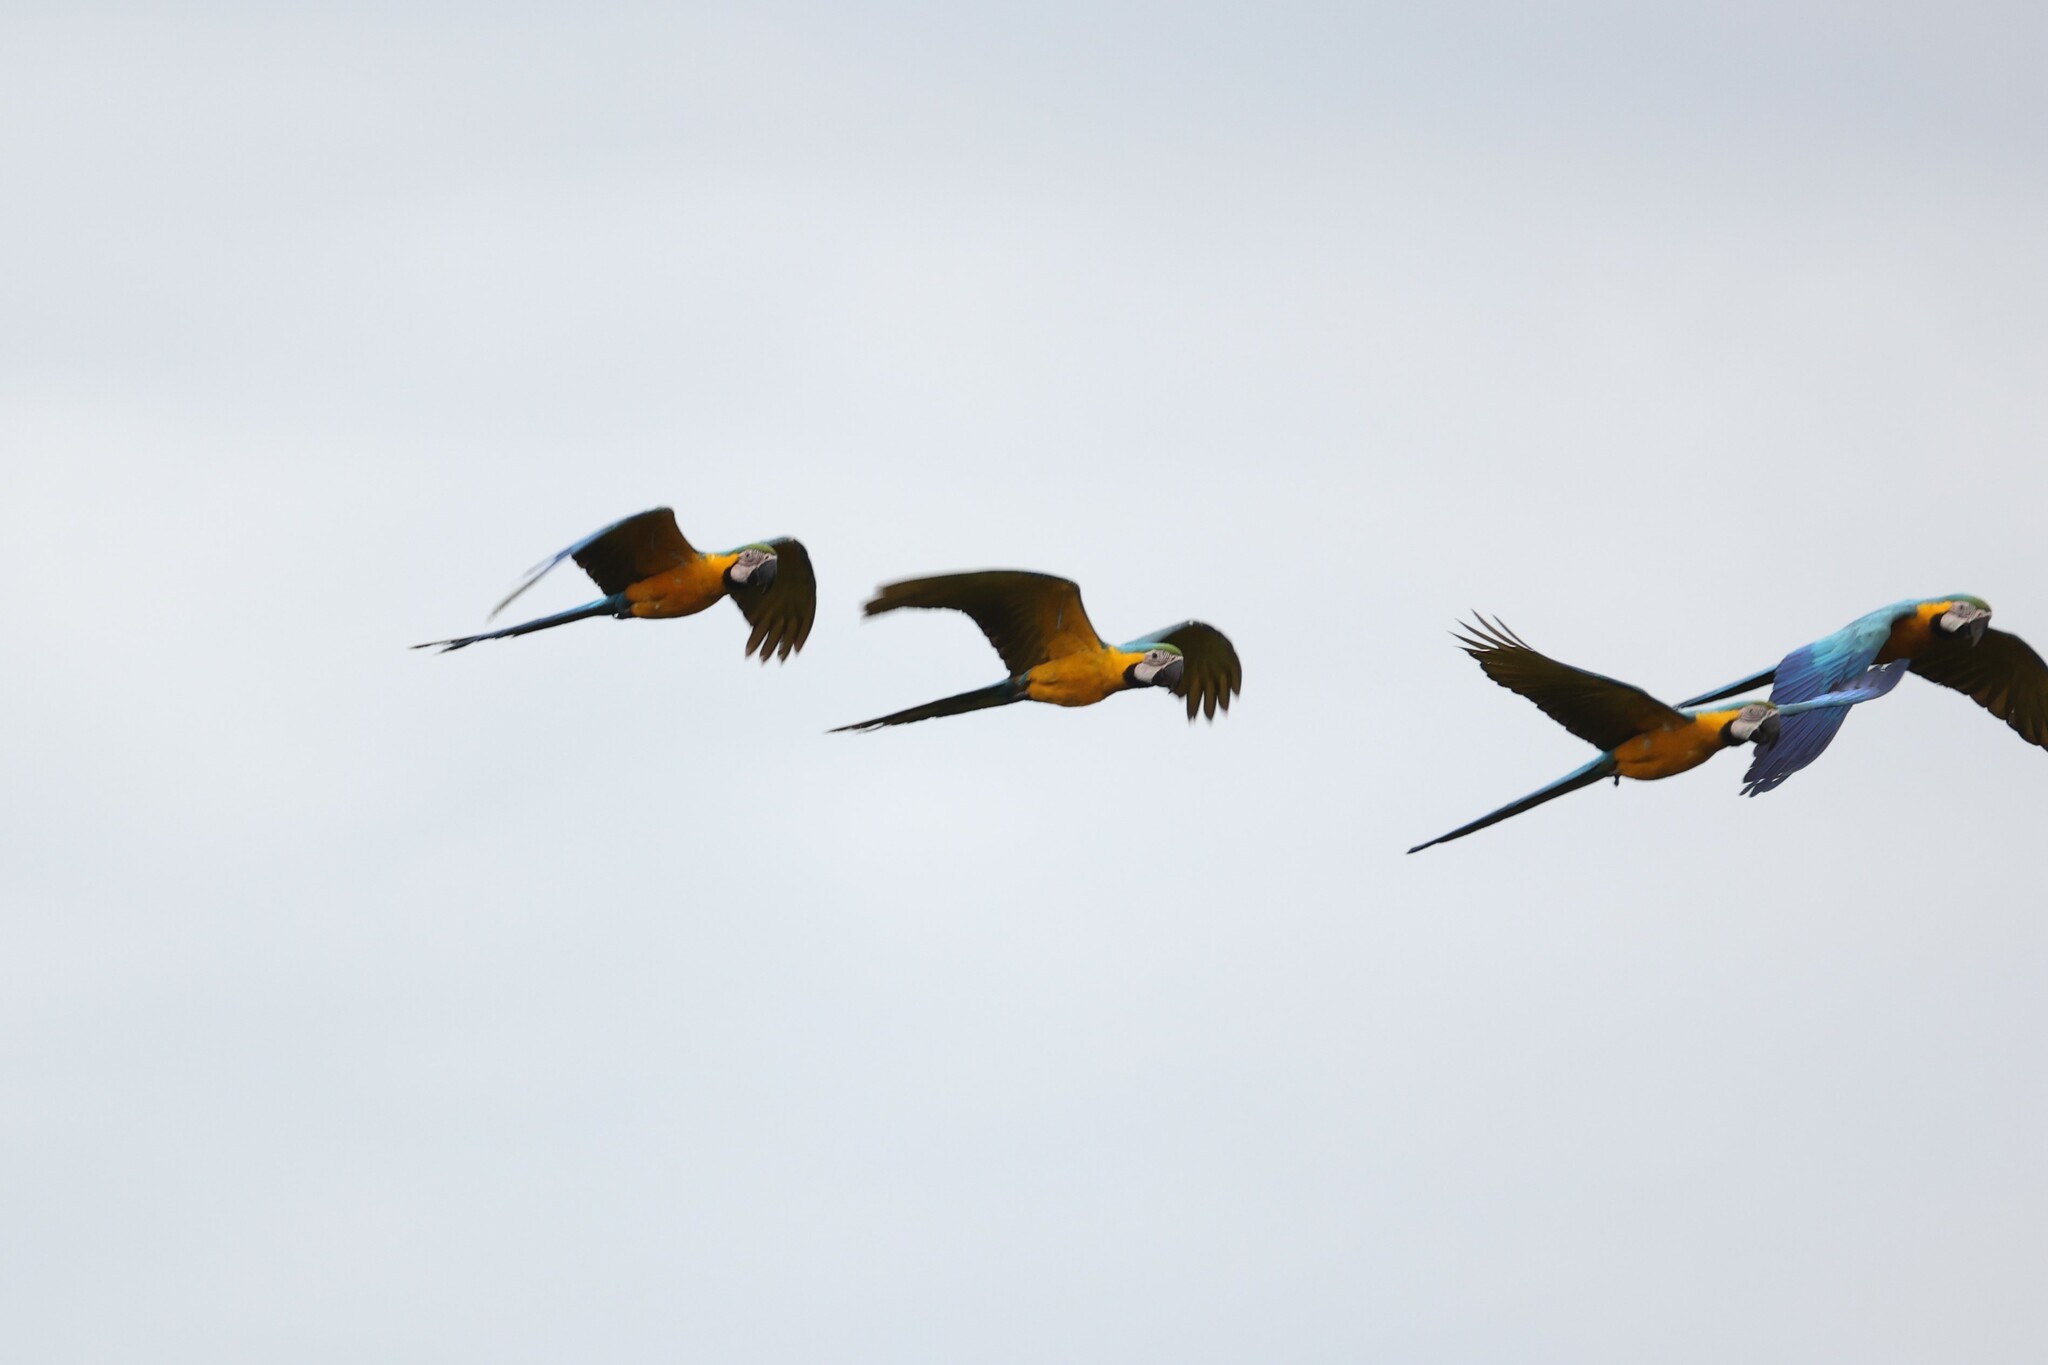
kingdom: Animalia
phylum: Chordata
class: Aves
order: Psittaciformes
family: Psittacidae
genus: Ara
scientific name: Ara ararauna
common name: Blue-and-yellow macaw
